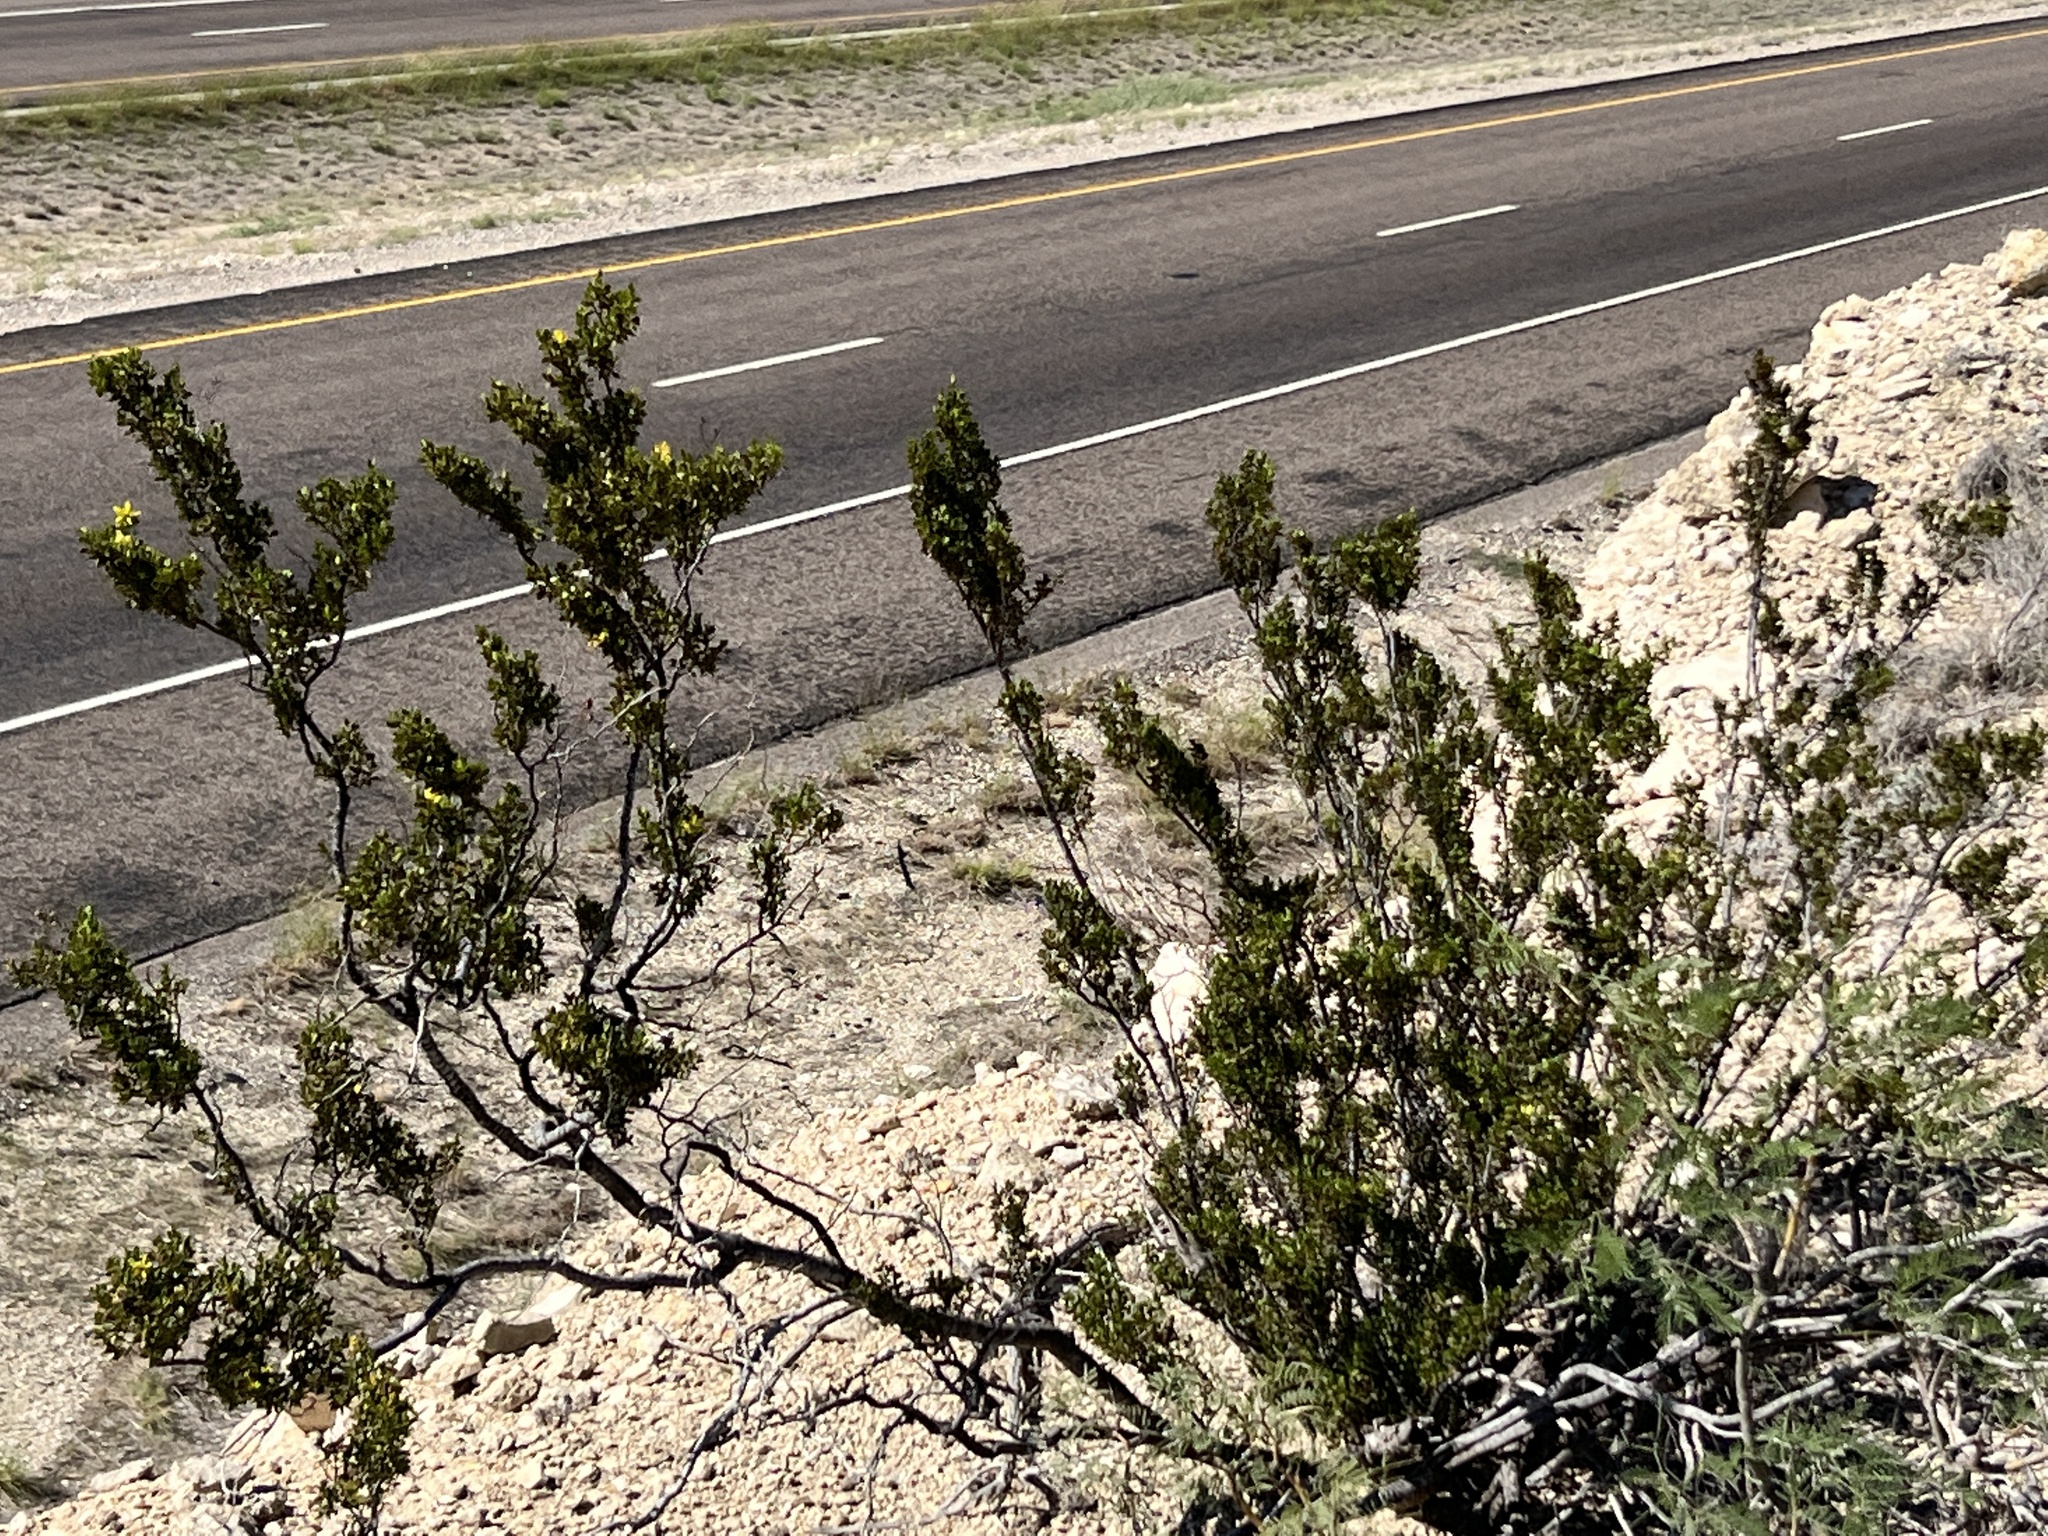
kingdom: Plantae
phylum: Tracheophyta
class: Magnoliopsida
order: Zygophyllales
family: Zygophyllaceae
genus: Larrea
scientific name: Larrea tridentata
